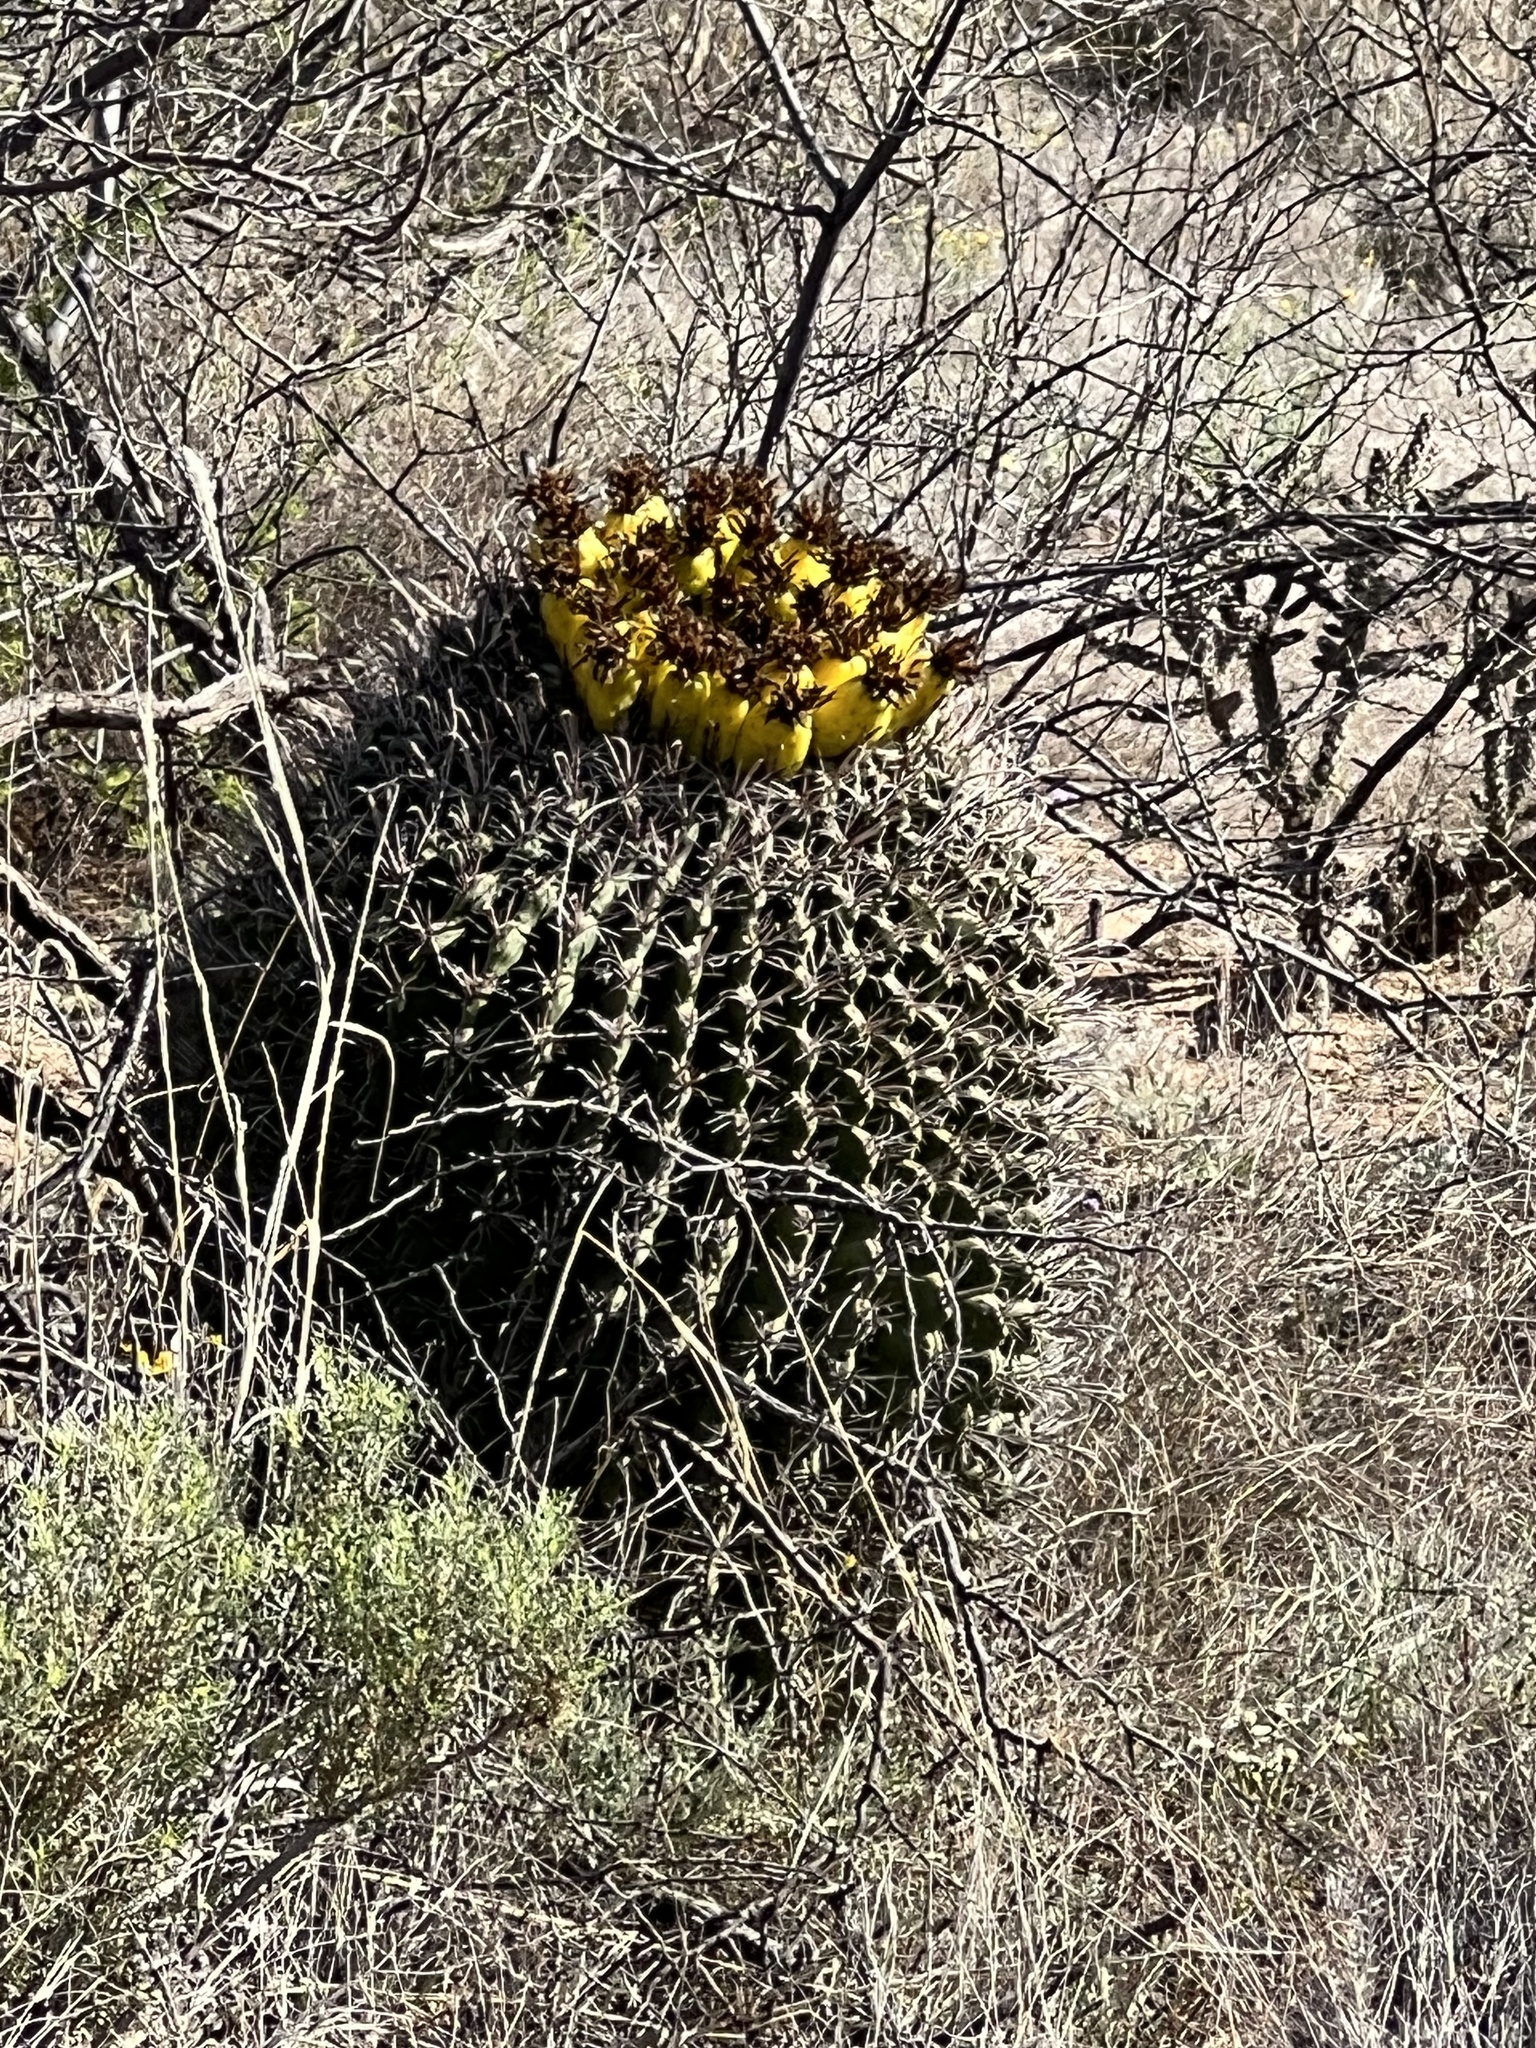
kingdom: Plantae
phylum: Tracheophyta
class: Magnoliopsida
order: Caryophyllales
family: Cactaceae
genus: Ferocactus
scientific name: Ferocactus wislizeni
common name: Candy barrel cactus
